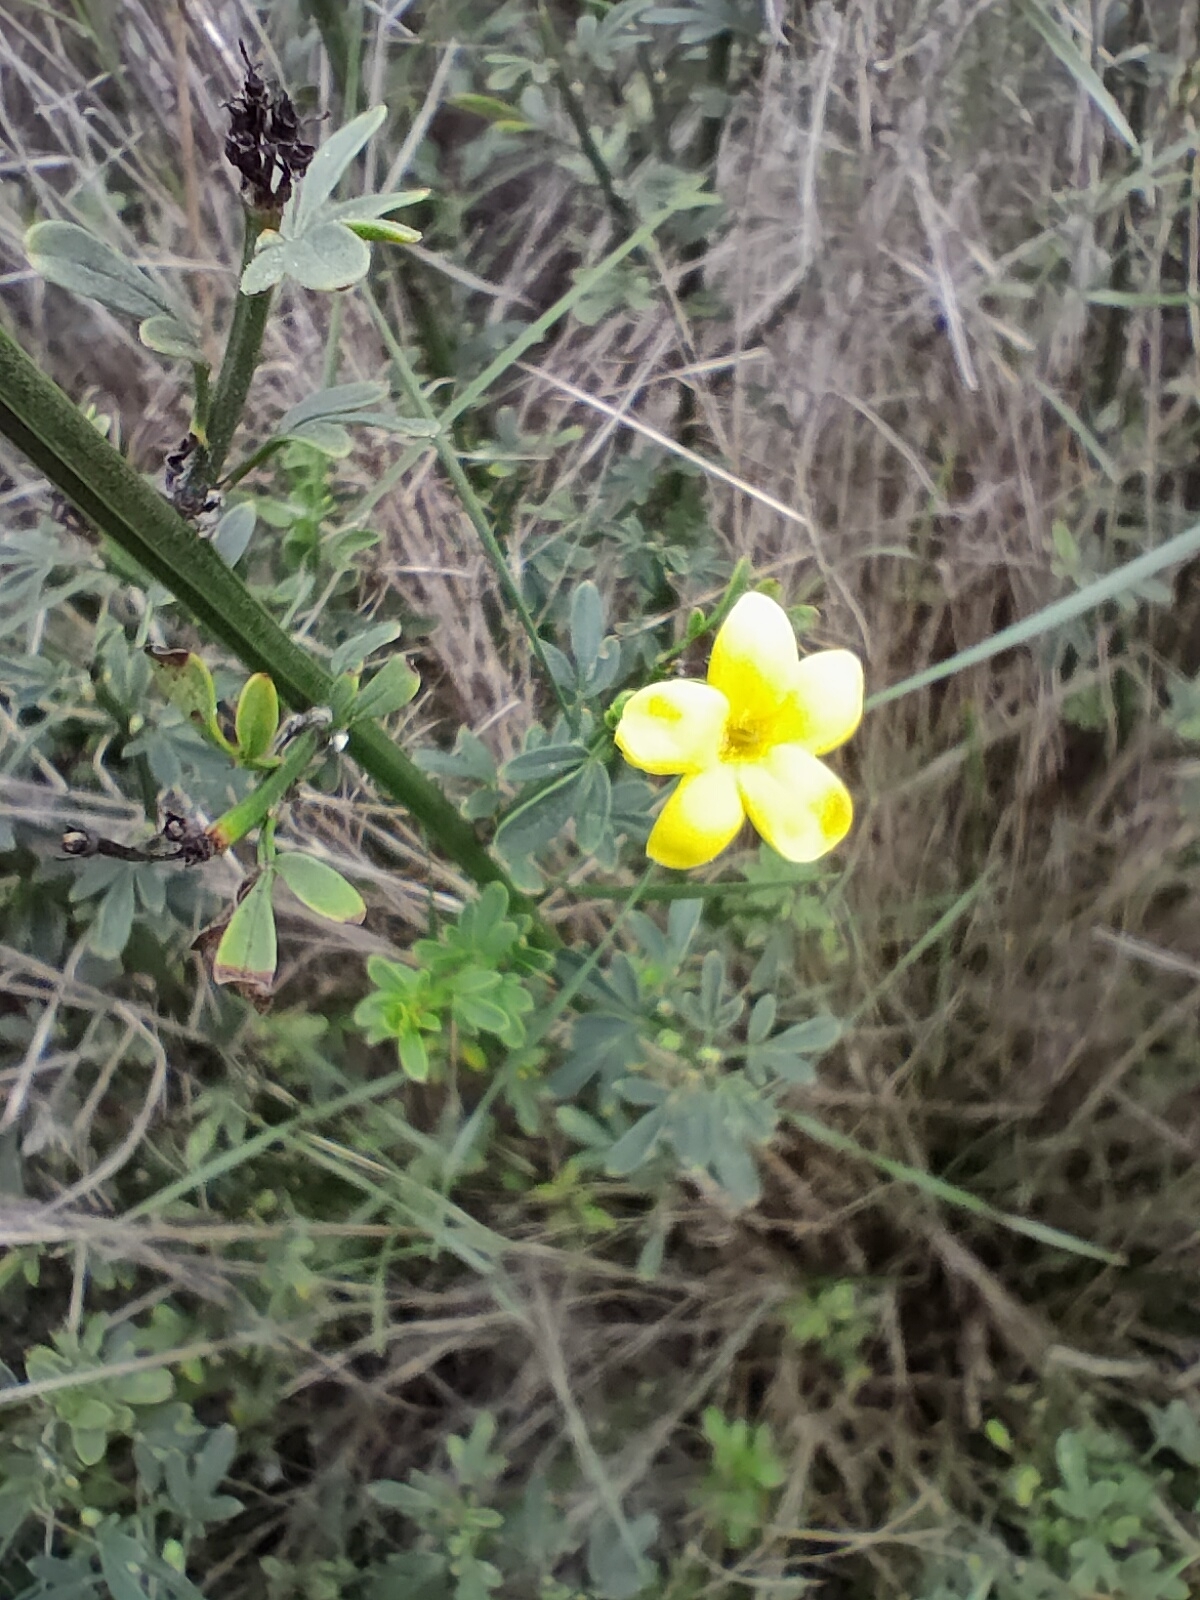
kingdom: Plantae
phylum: Tracheophyta
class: Magnoliopsida
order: Lamiales
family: Oleaceae
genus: Chrysojasminum
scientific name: Chrysojasminum fruticans
